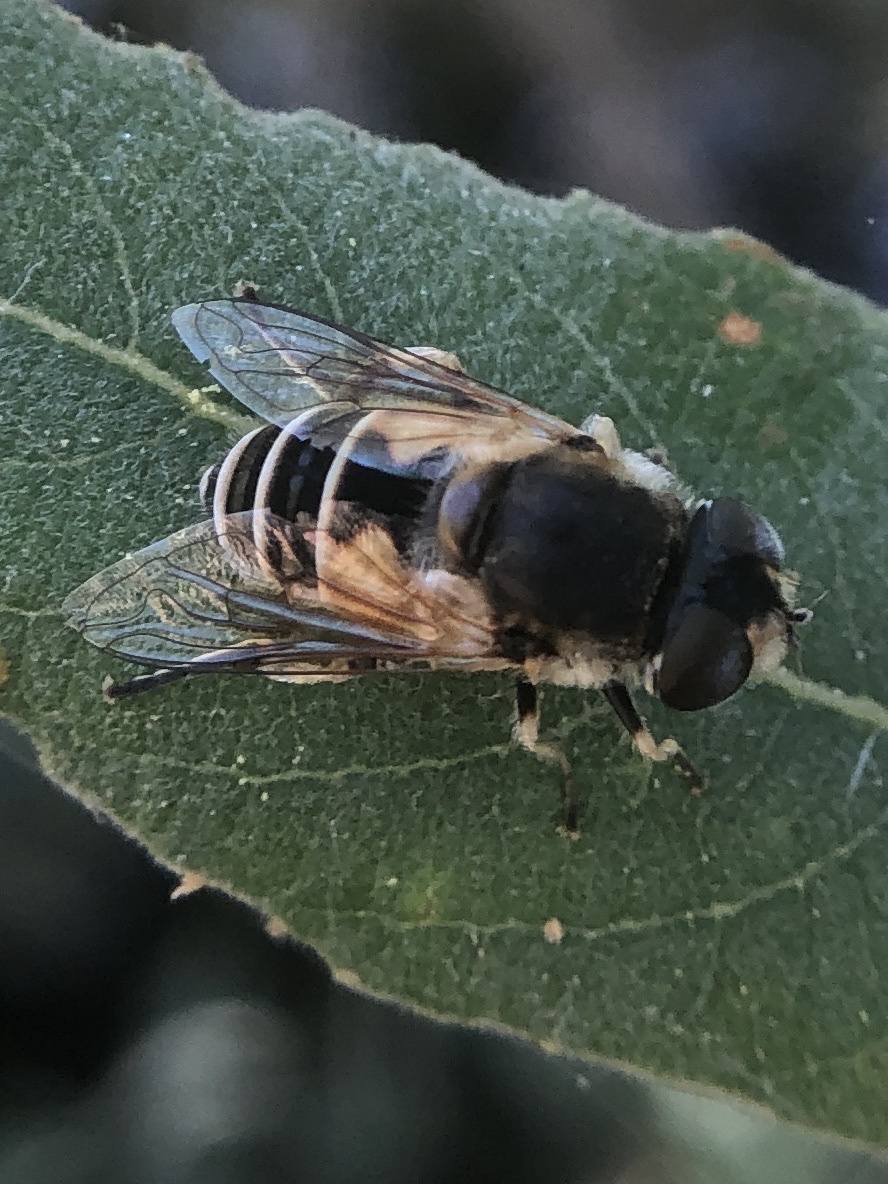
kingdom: Animalia
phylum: Arthropoda
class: Insecta
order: Diptera
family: Syrphidae
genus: Eristalis
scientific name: Eristalis arbustorum
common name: Hover fly
